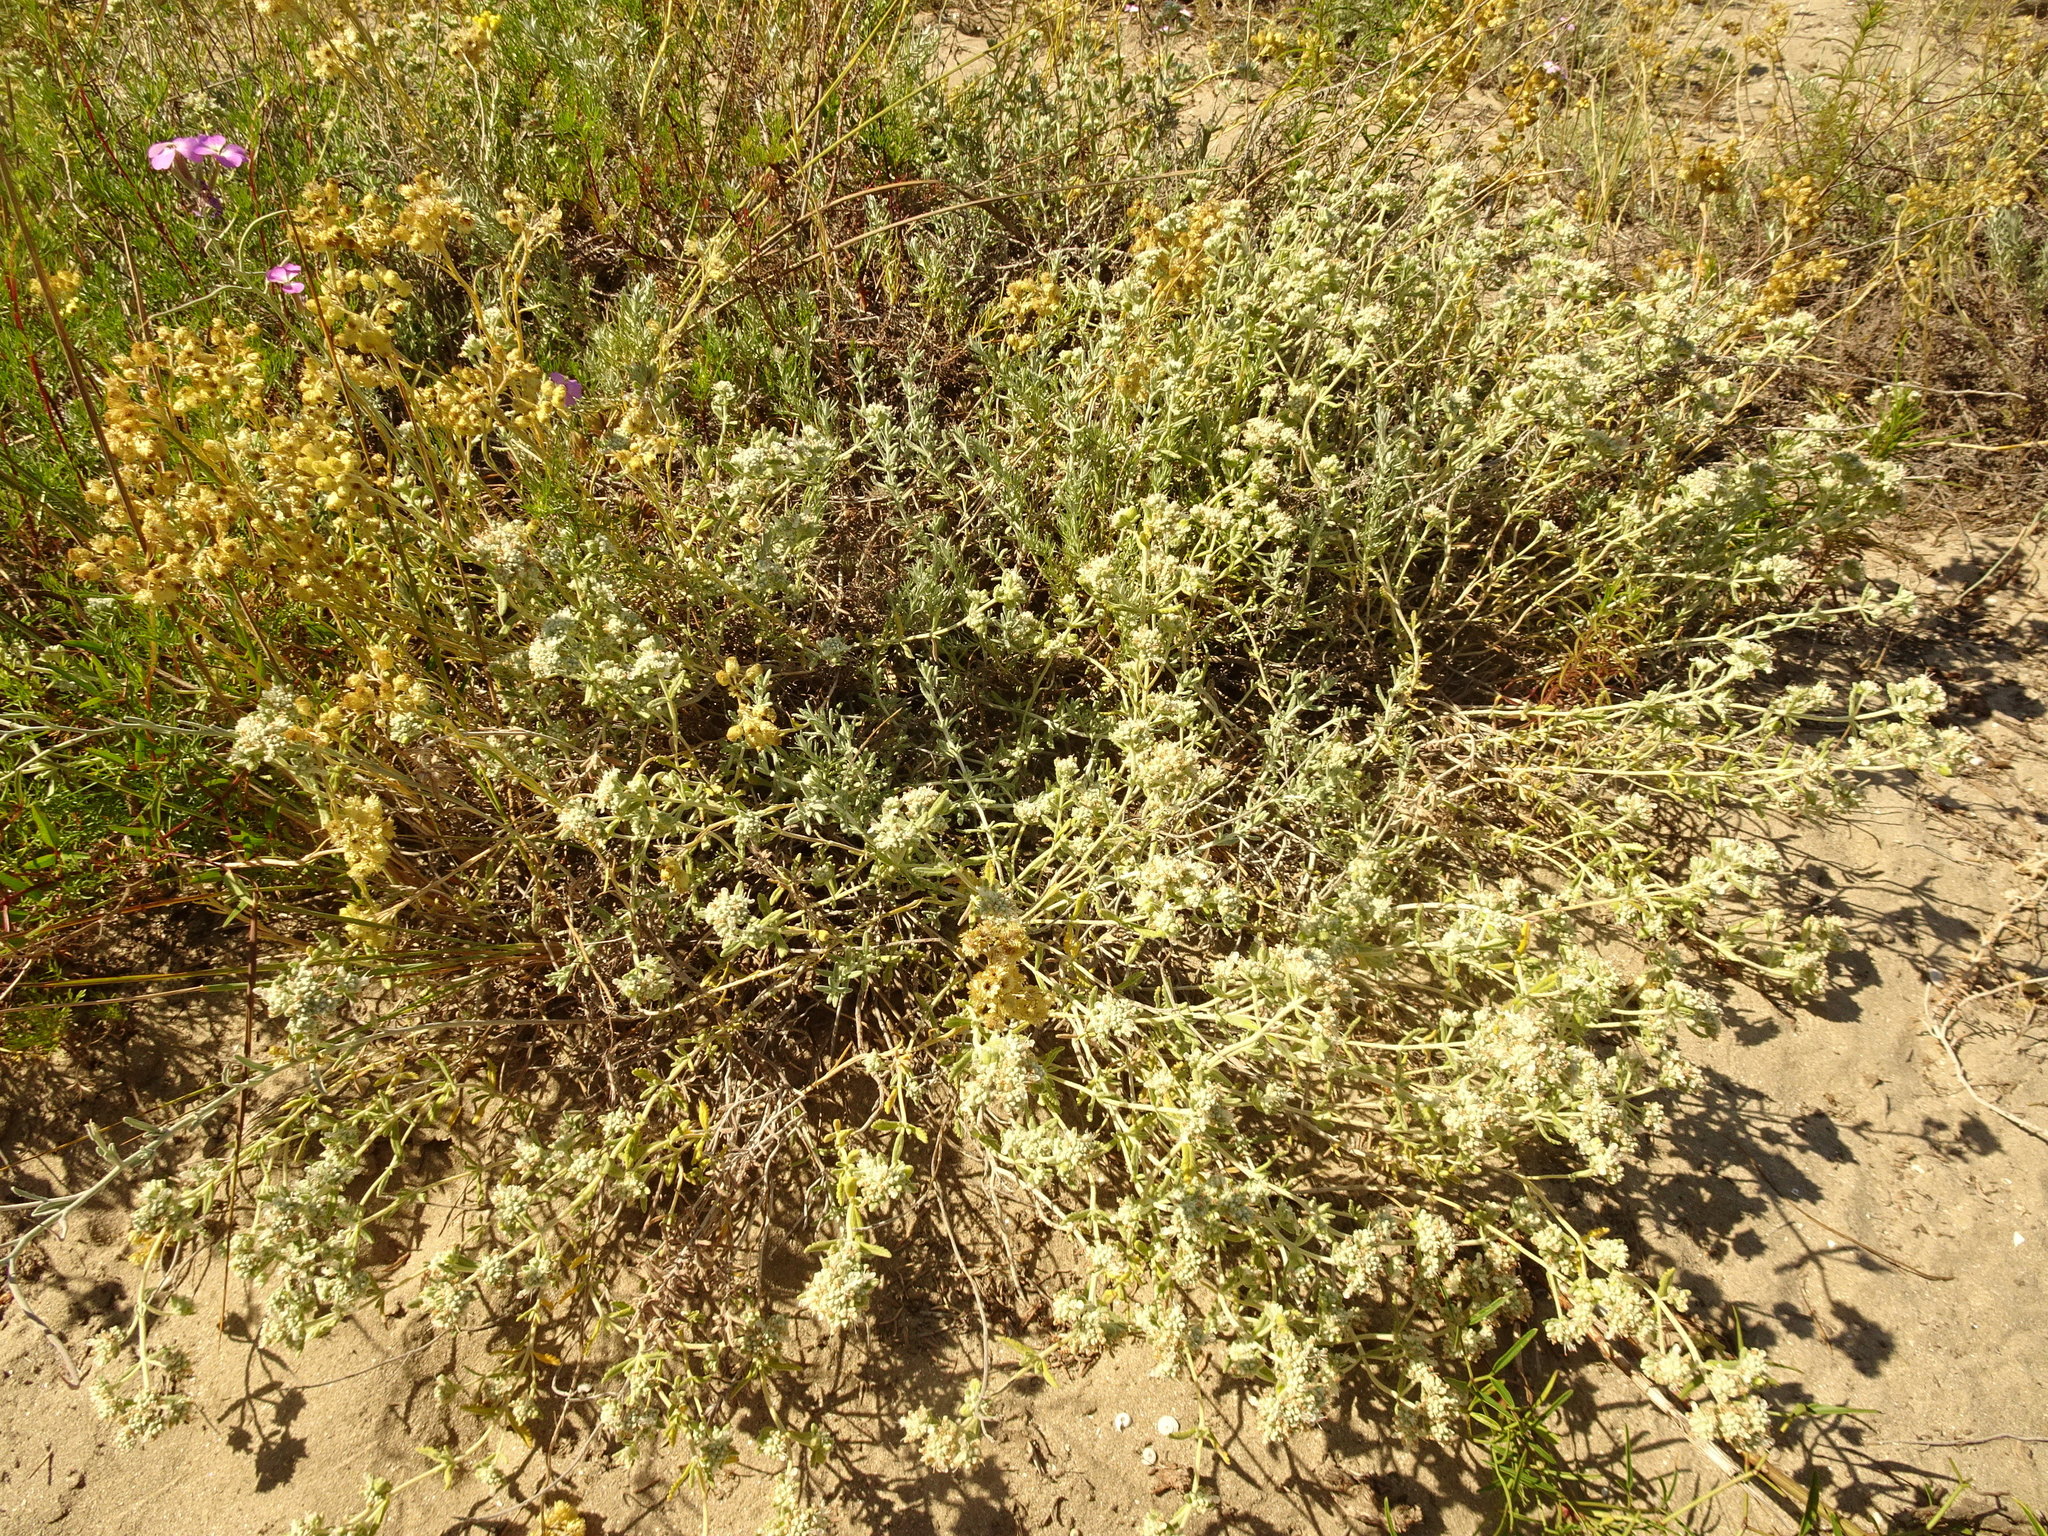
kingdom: Plantae
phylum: Tracheophyta
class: Magnoliopsida
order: Lamiales
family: Lamiaceae
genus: Teucrium
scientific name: Teucrium dunense
